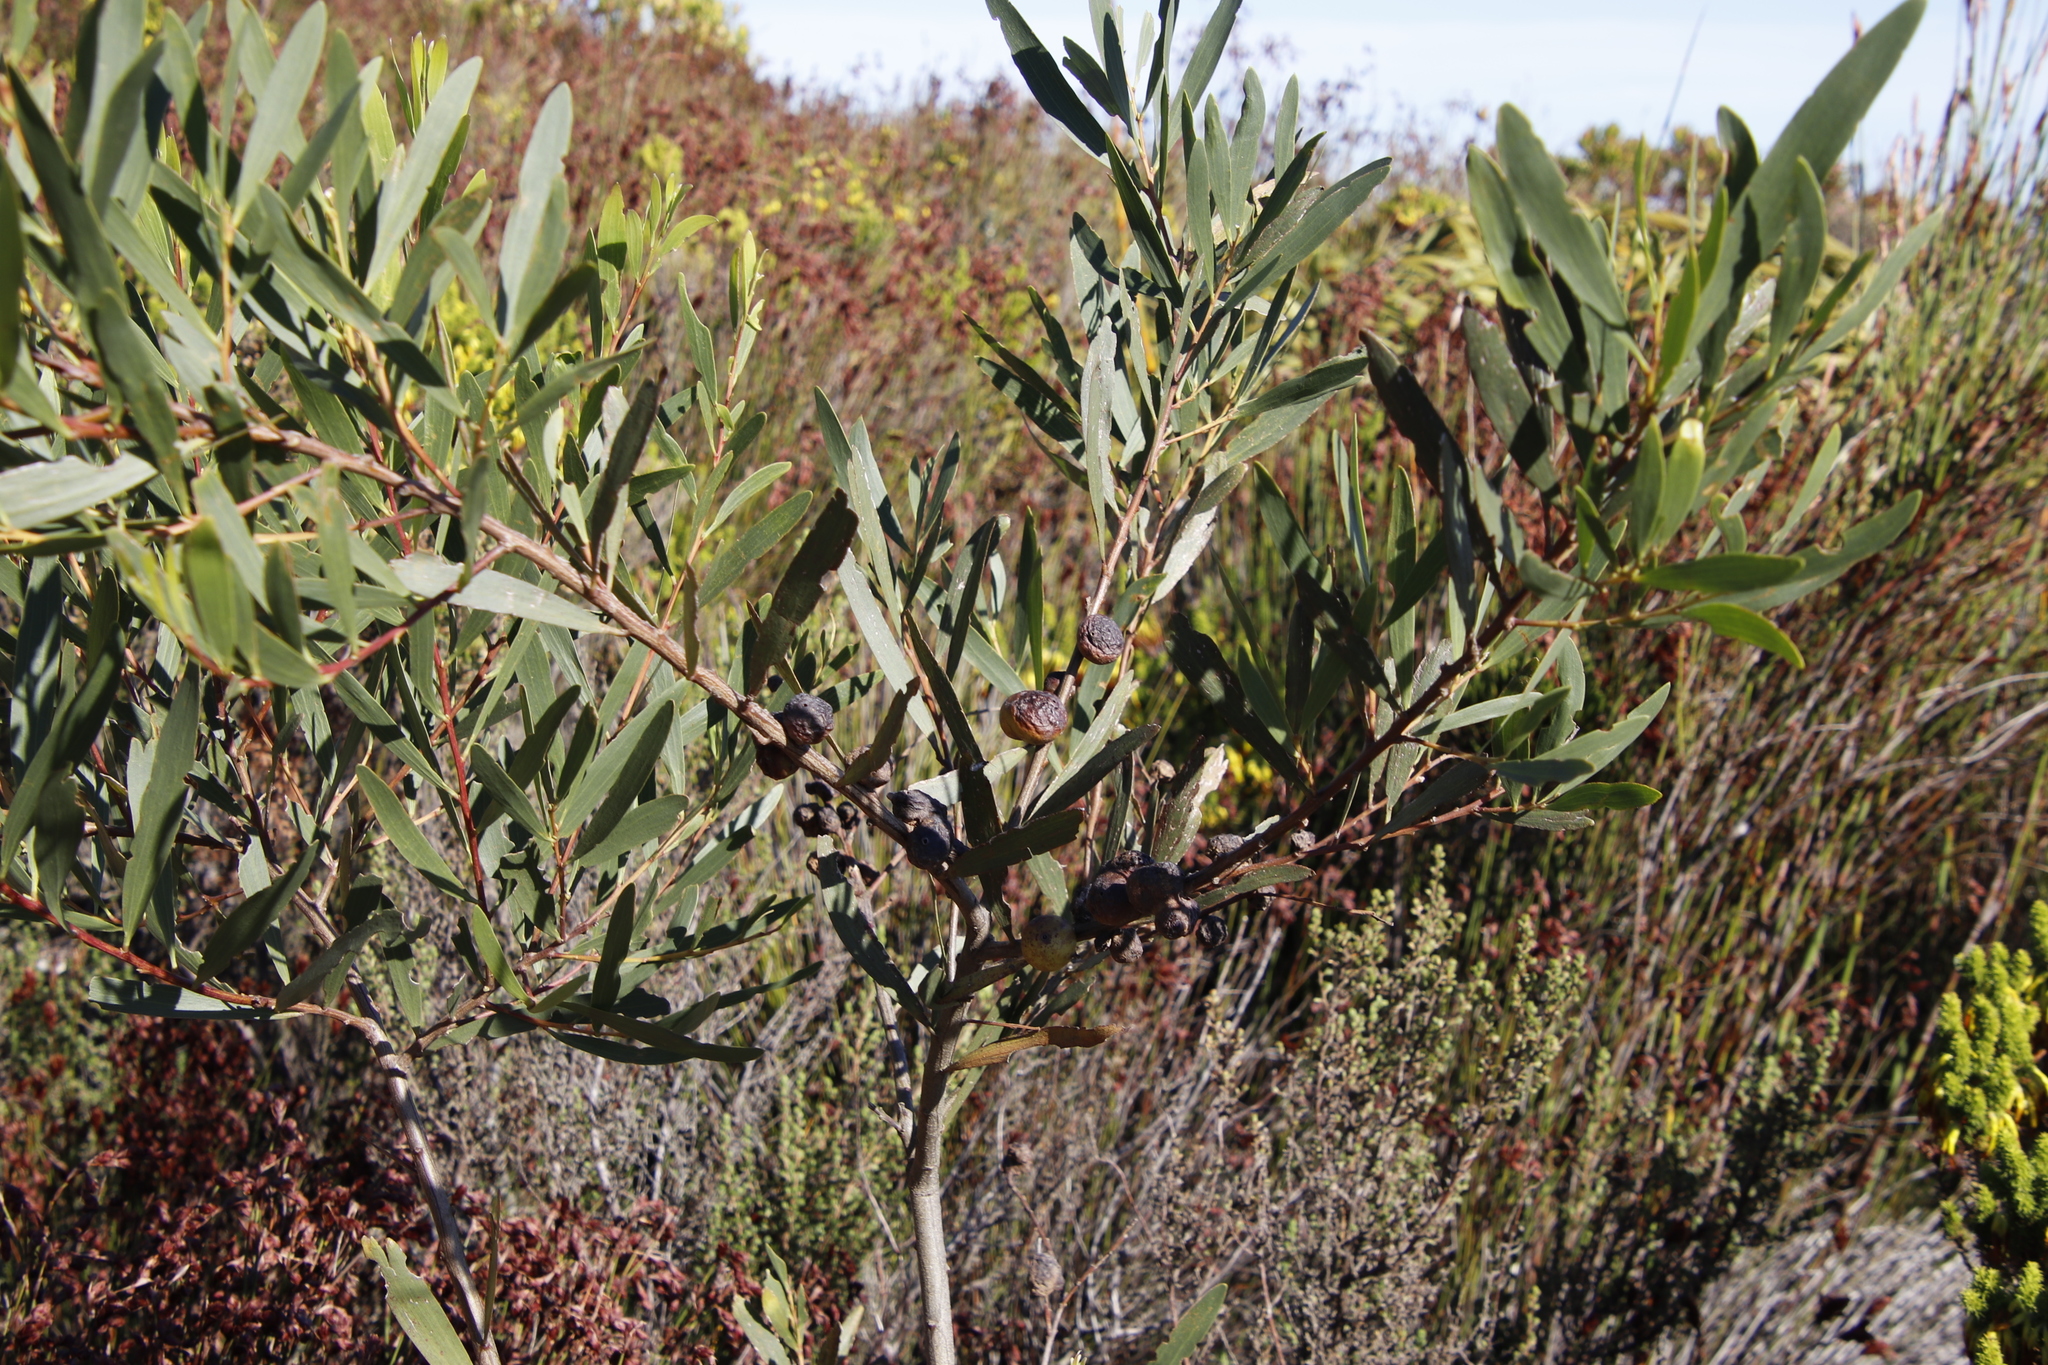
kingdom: Animalia
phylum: Arthropoda
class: Insecta
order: Hymenoptera
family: Pteromalidae
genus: Trichilogaster
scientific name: Trichilogaster acaciaelongifoliae
